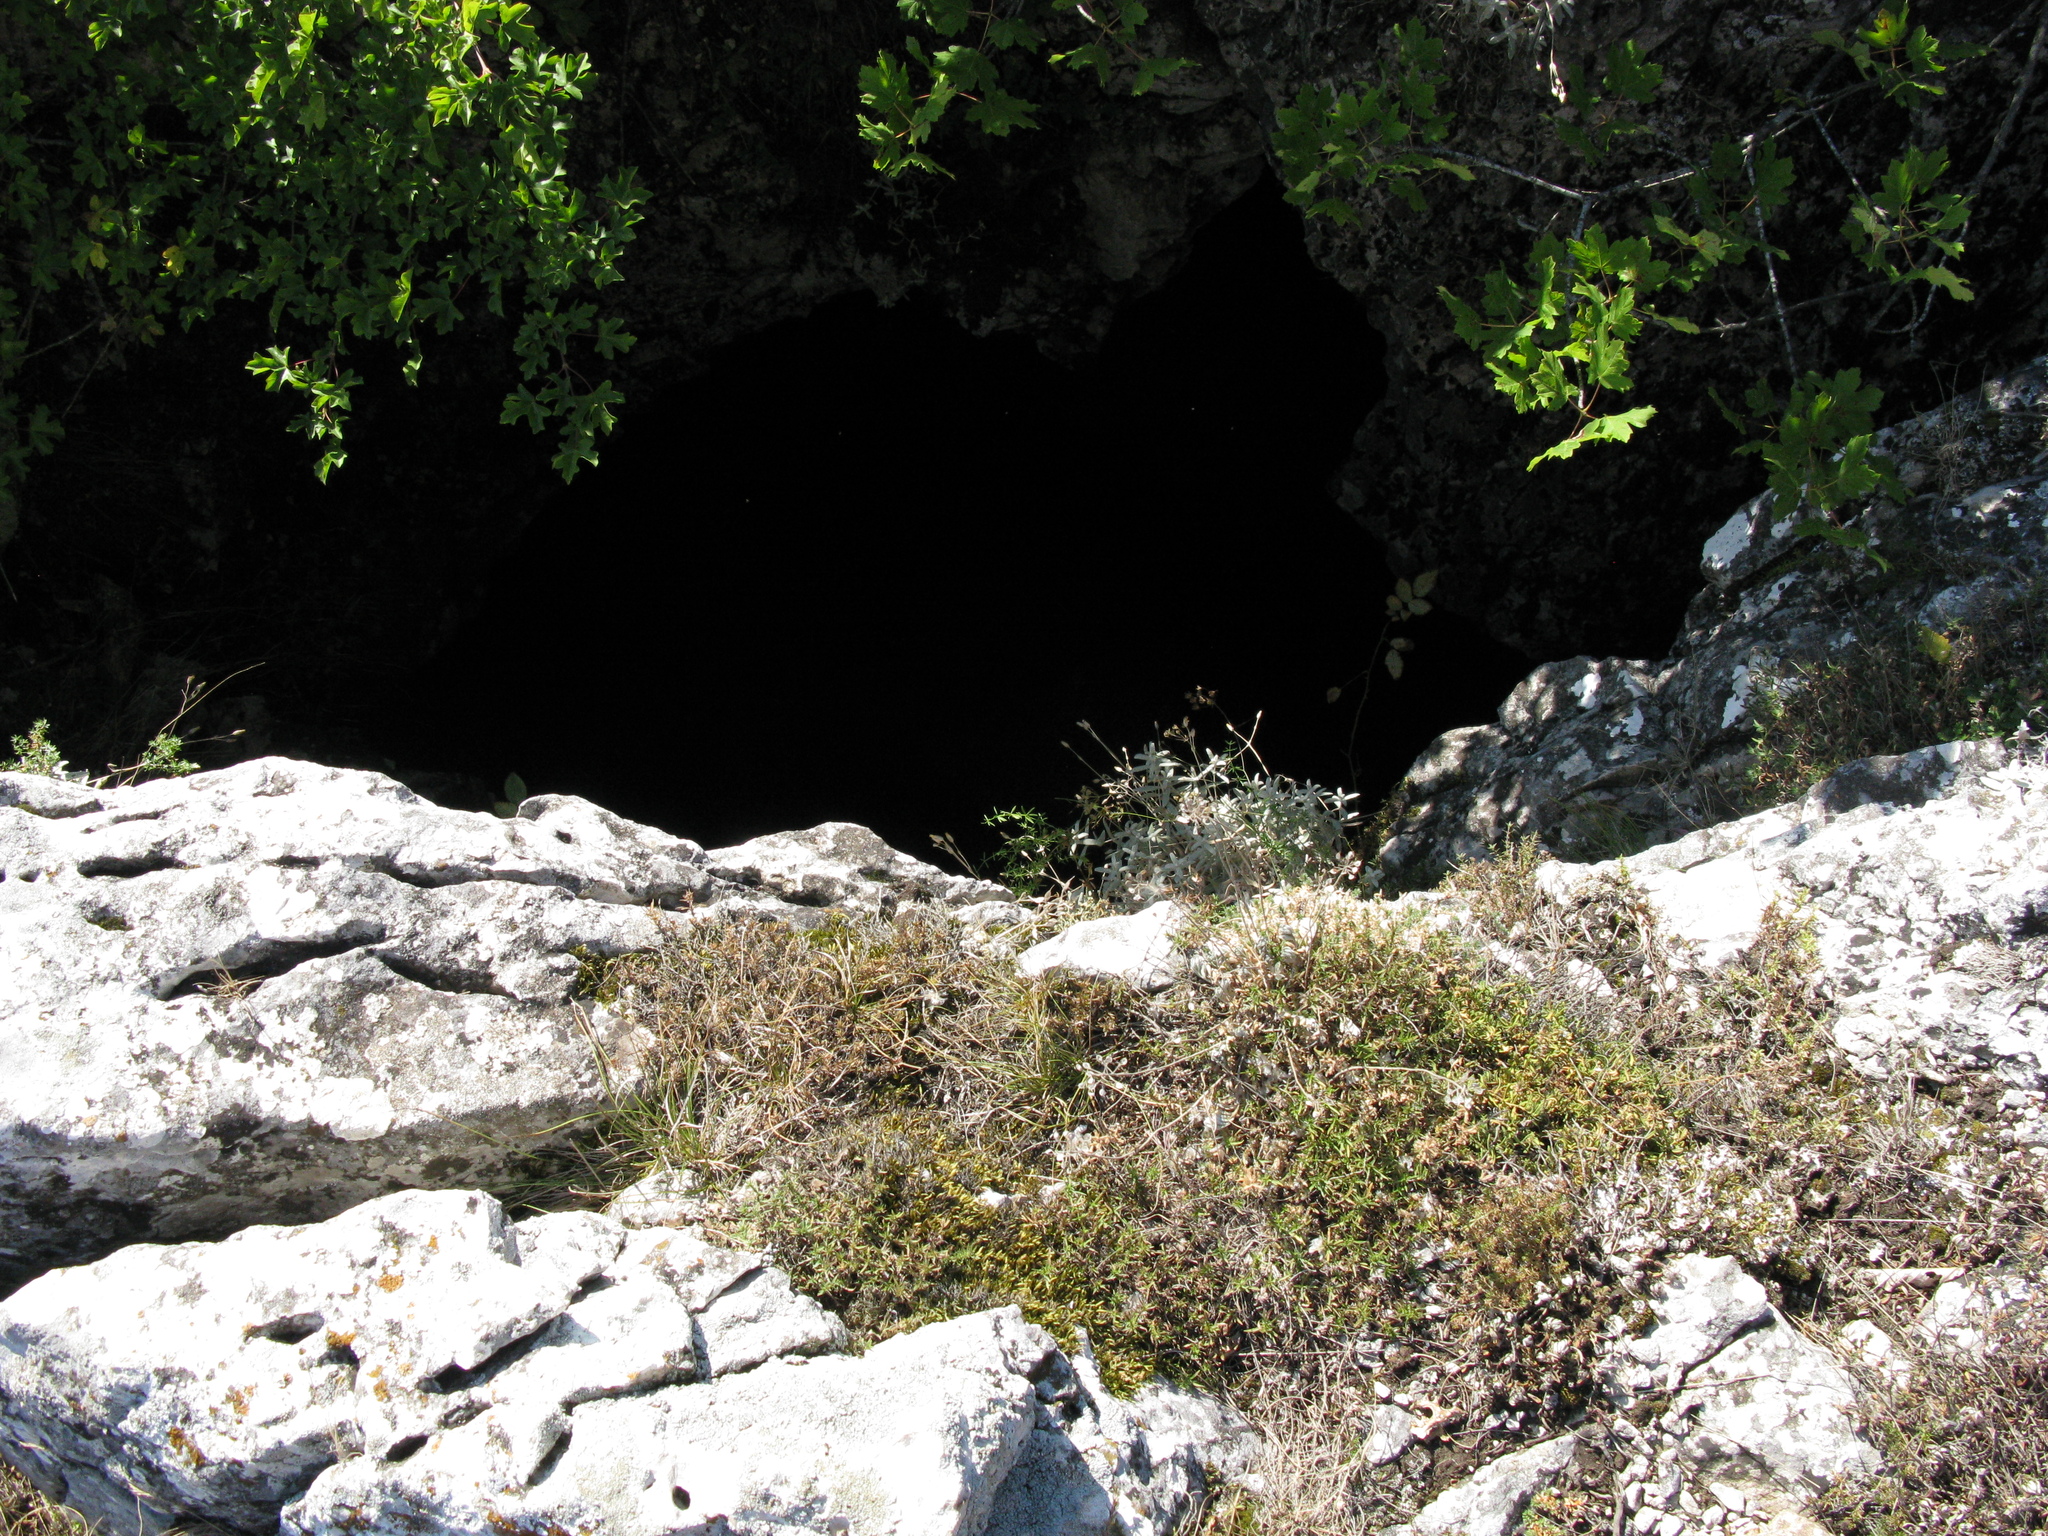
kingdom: Plantae
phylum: Tracheophyta
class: Magnoliopsida
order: Caryophyllales
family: Caryophyllaceae
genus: Cerastium
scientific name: Cerastium biebersteinii
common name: Snow-in-summer
